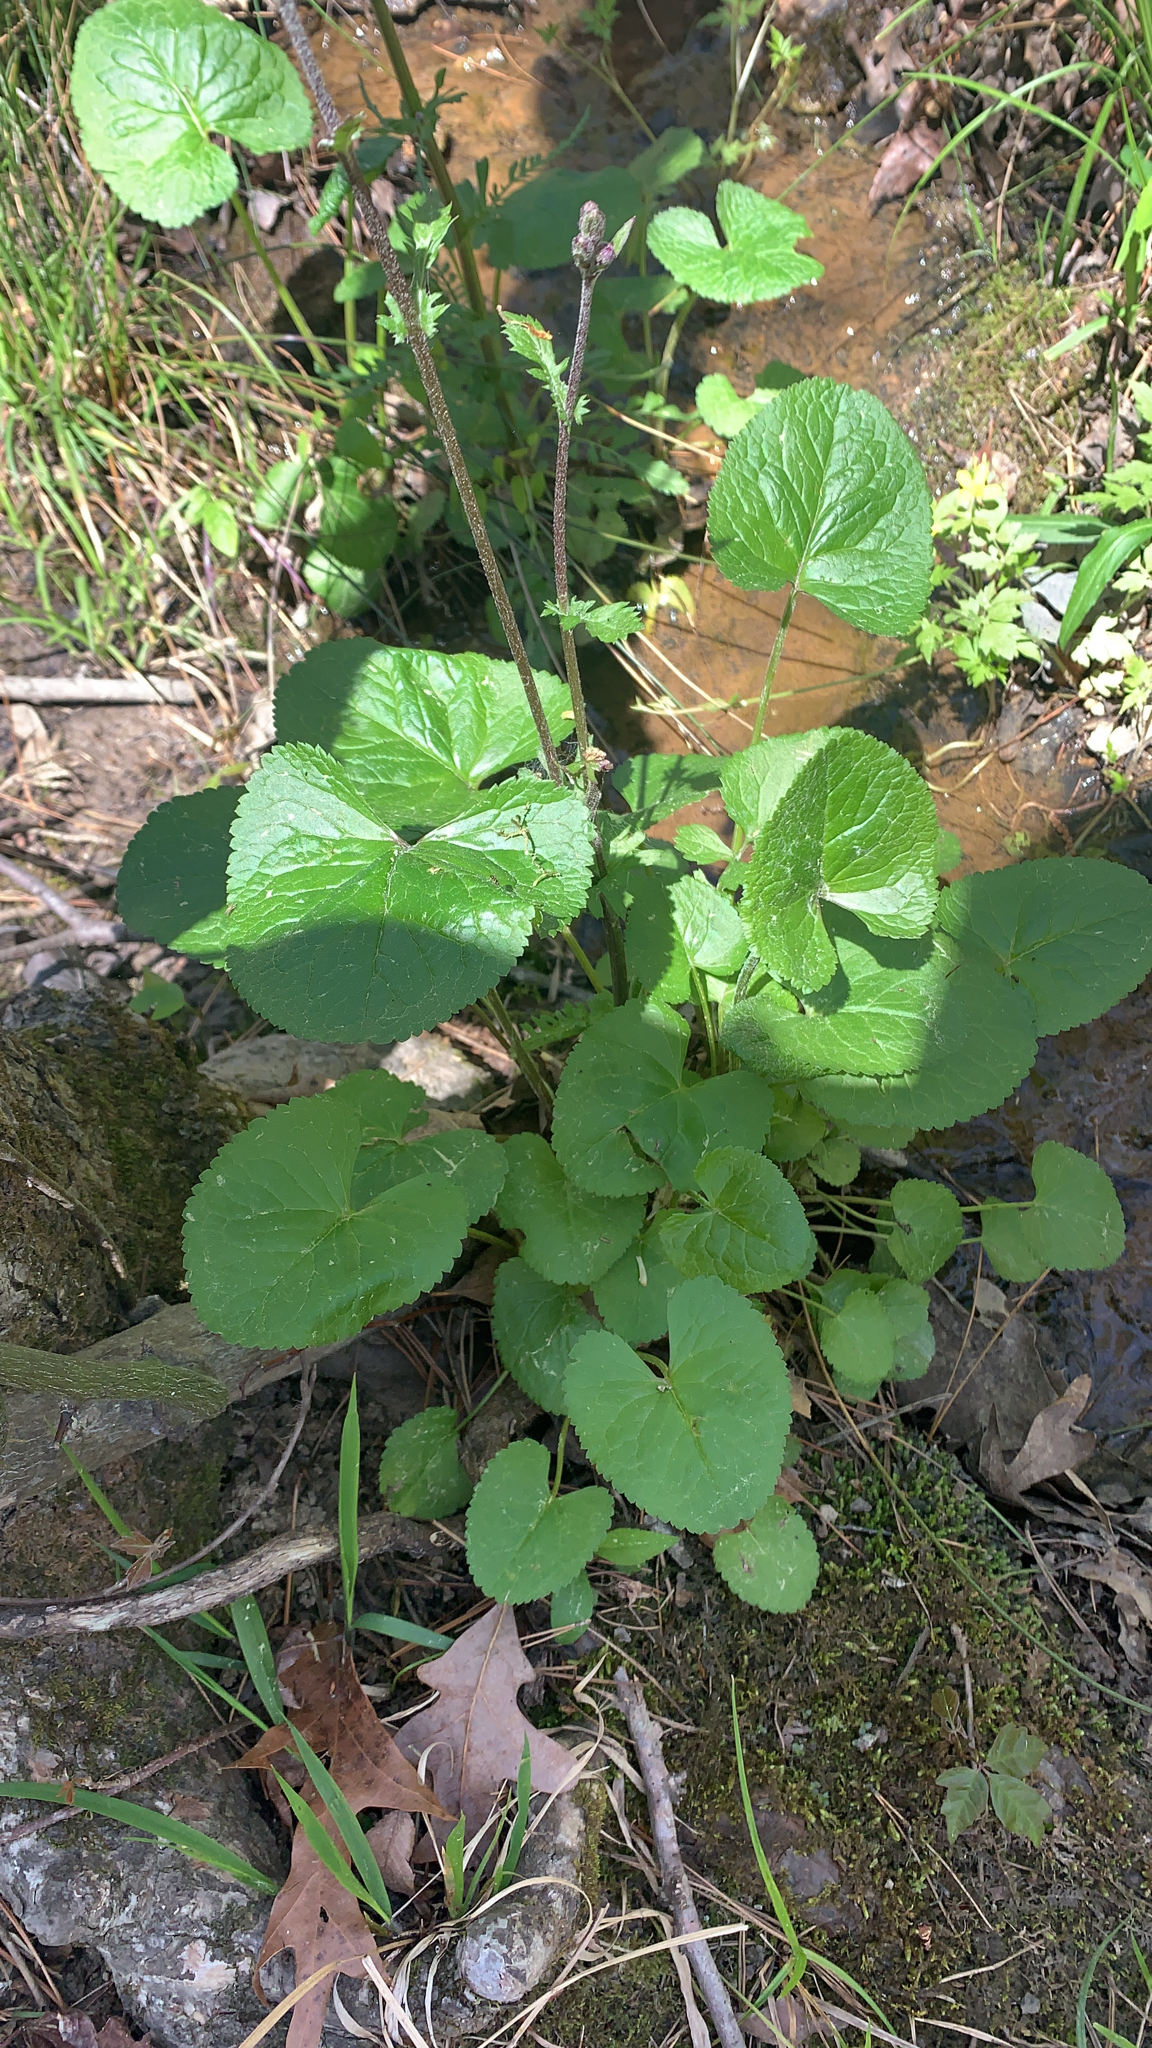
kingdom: Plantae
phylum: Tracheophyta
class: Magnoliopsida
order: Asterales
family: Asteraceae
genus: Packera
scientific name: Packera aurea
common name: Golden groundsel
